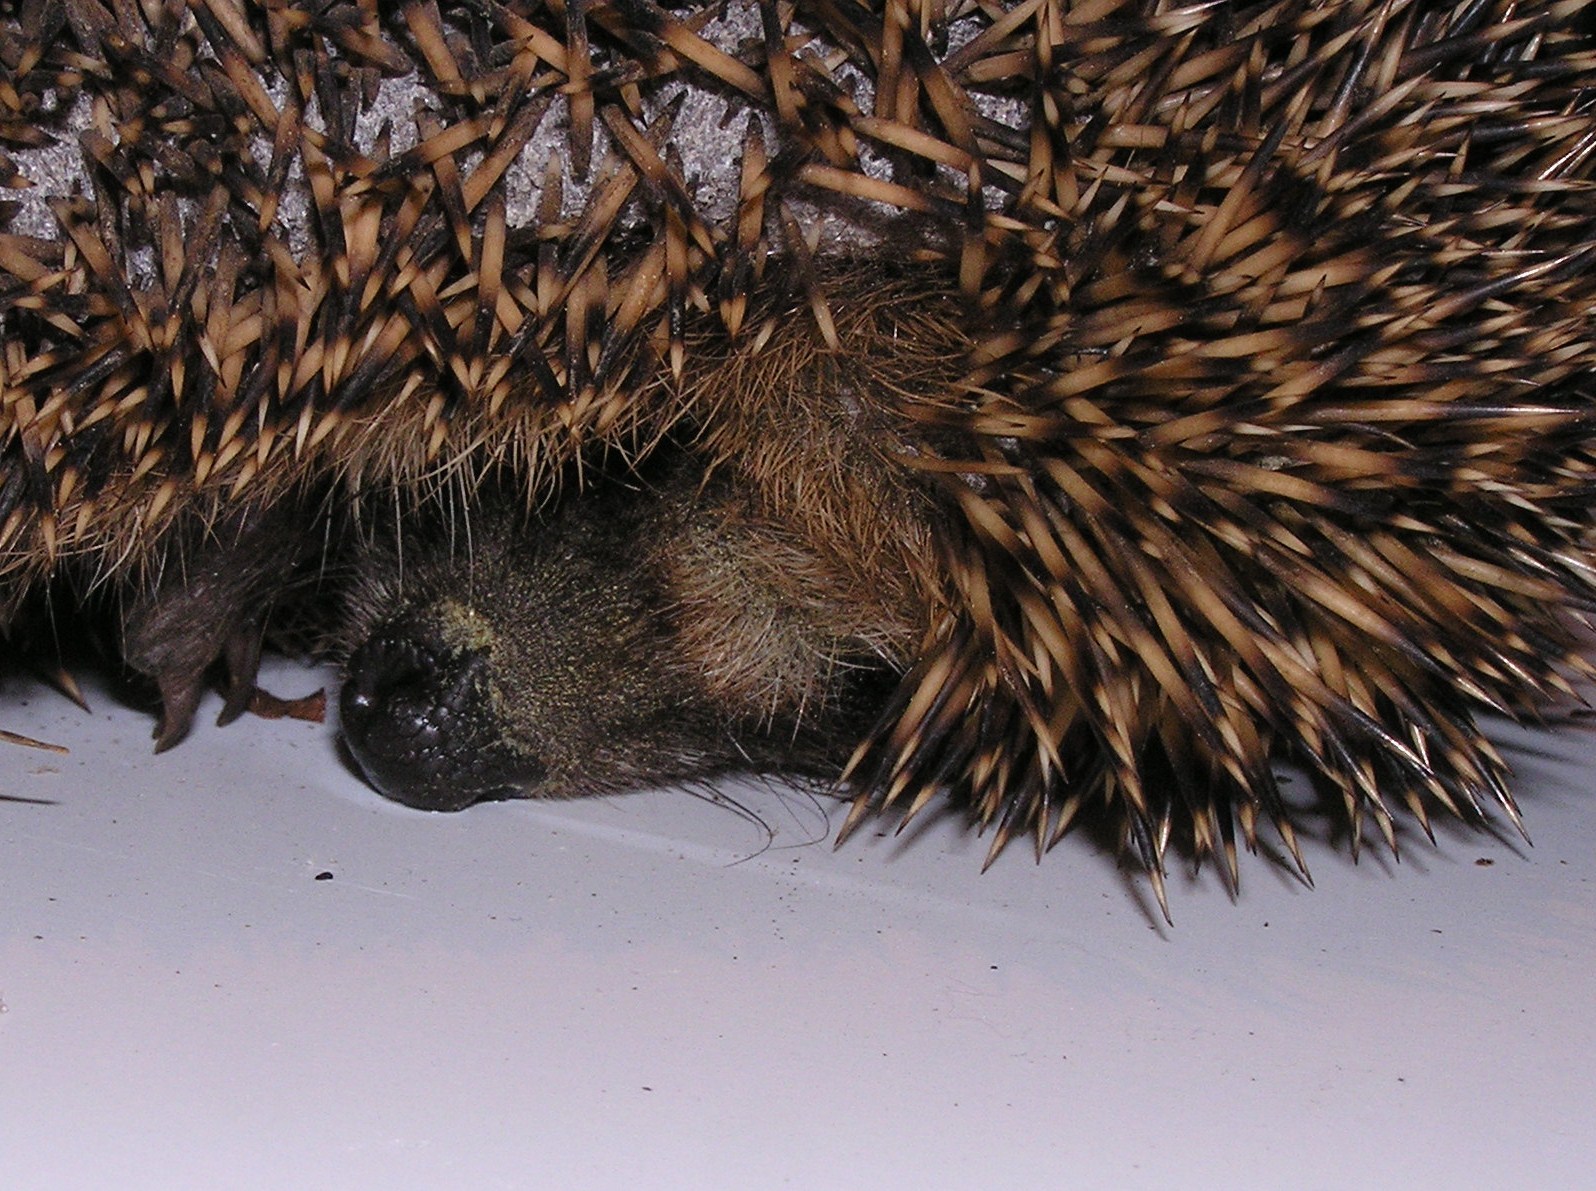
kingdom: Animalia
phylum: Chordata
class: Mammalia
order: Erinaceomorpha
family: Erinaceidae
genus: Erinaceus
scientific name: Erinaceus europaeus
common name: West european hedgehog
